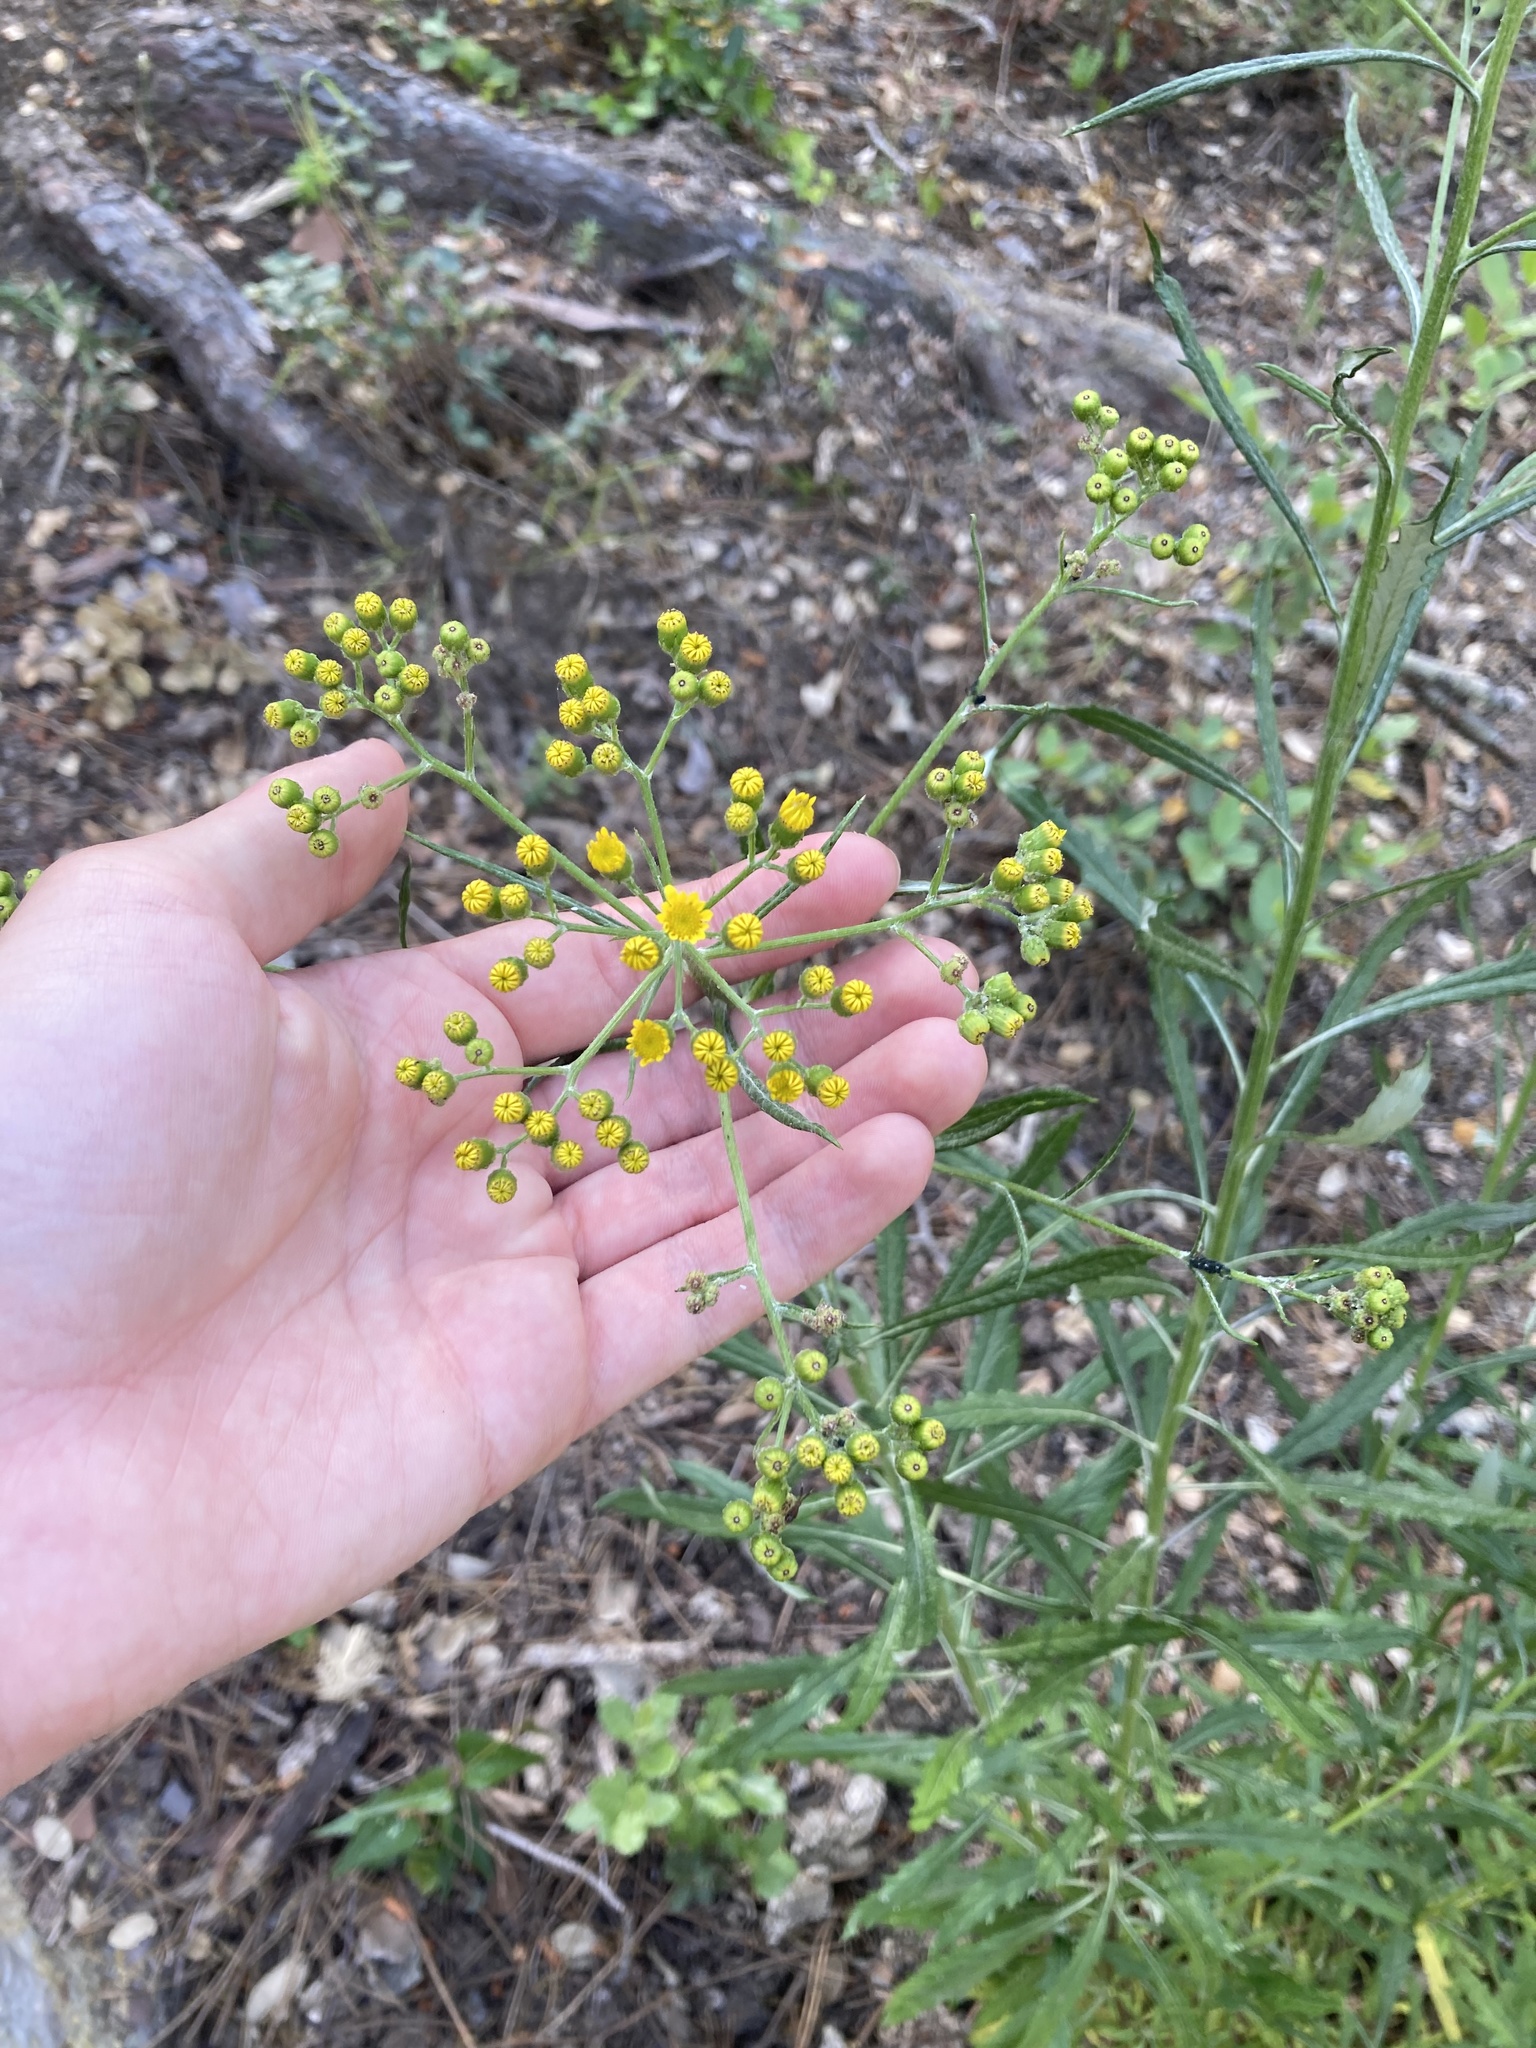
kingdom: Plantae
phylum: Tracheophyta
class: Magnoliopsida
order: Asterales
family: Asteraceae
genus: Senecio
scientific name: Senecio pterophorus
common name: Shoddy ragwort
